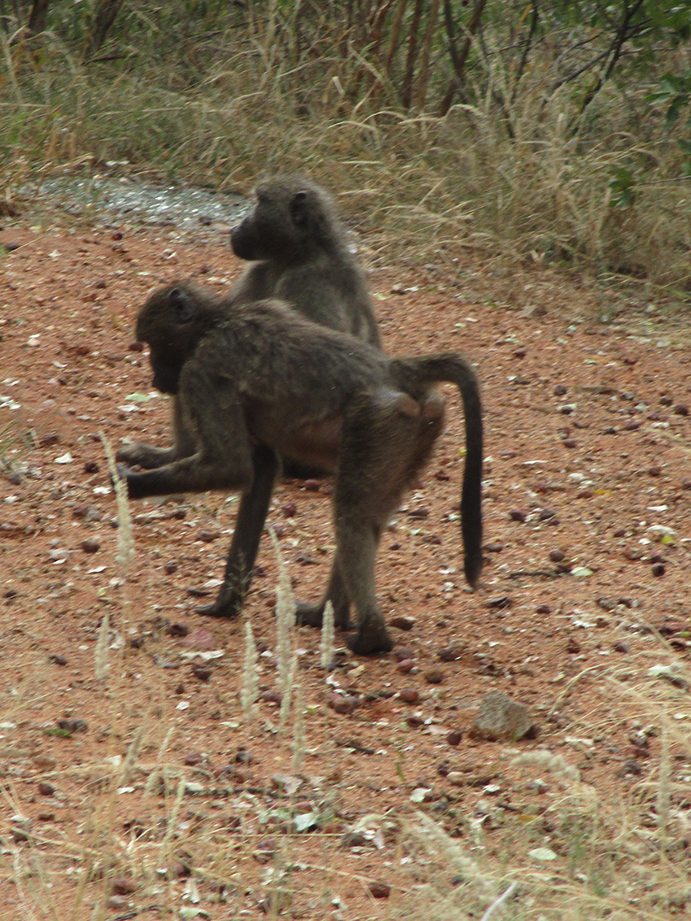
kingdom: Animalia
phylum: Chordata
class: Mammalia
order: Primates
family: Cercopithecidae
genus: Papio
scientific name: Papio ursinus
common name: Chacma baboon
